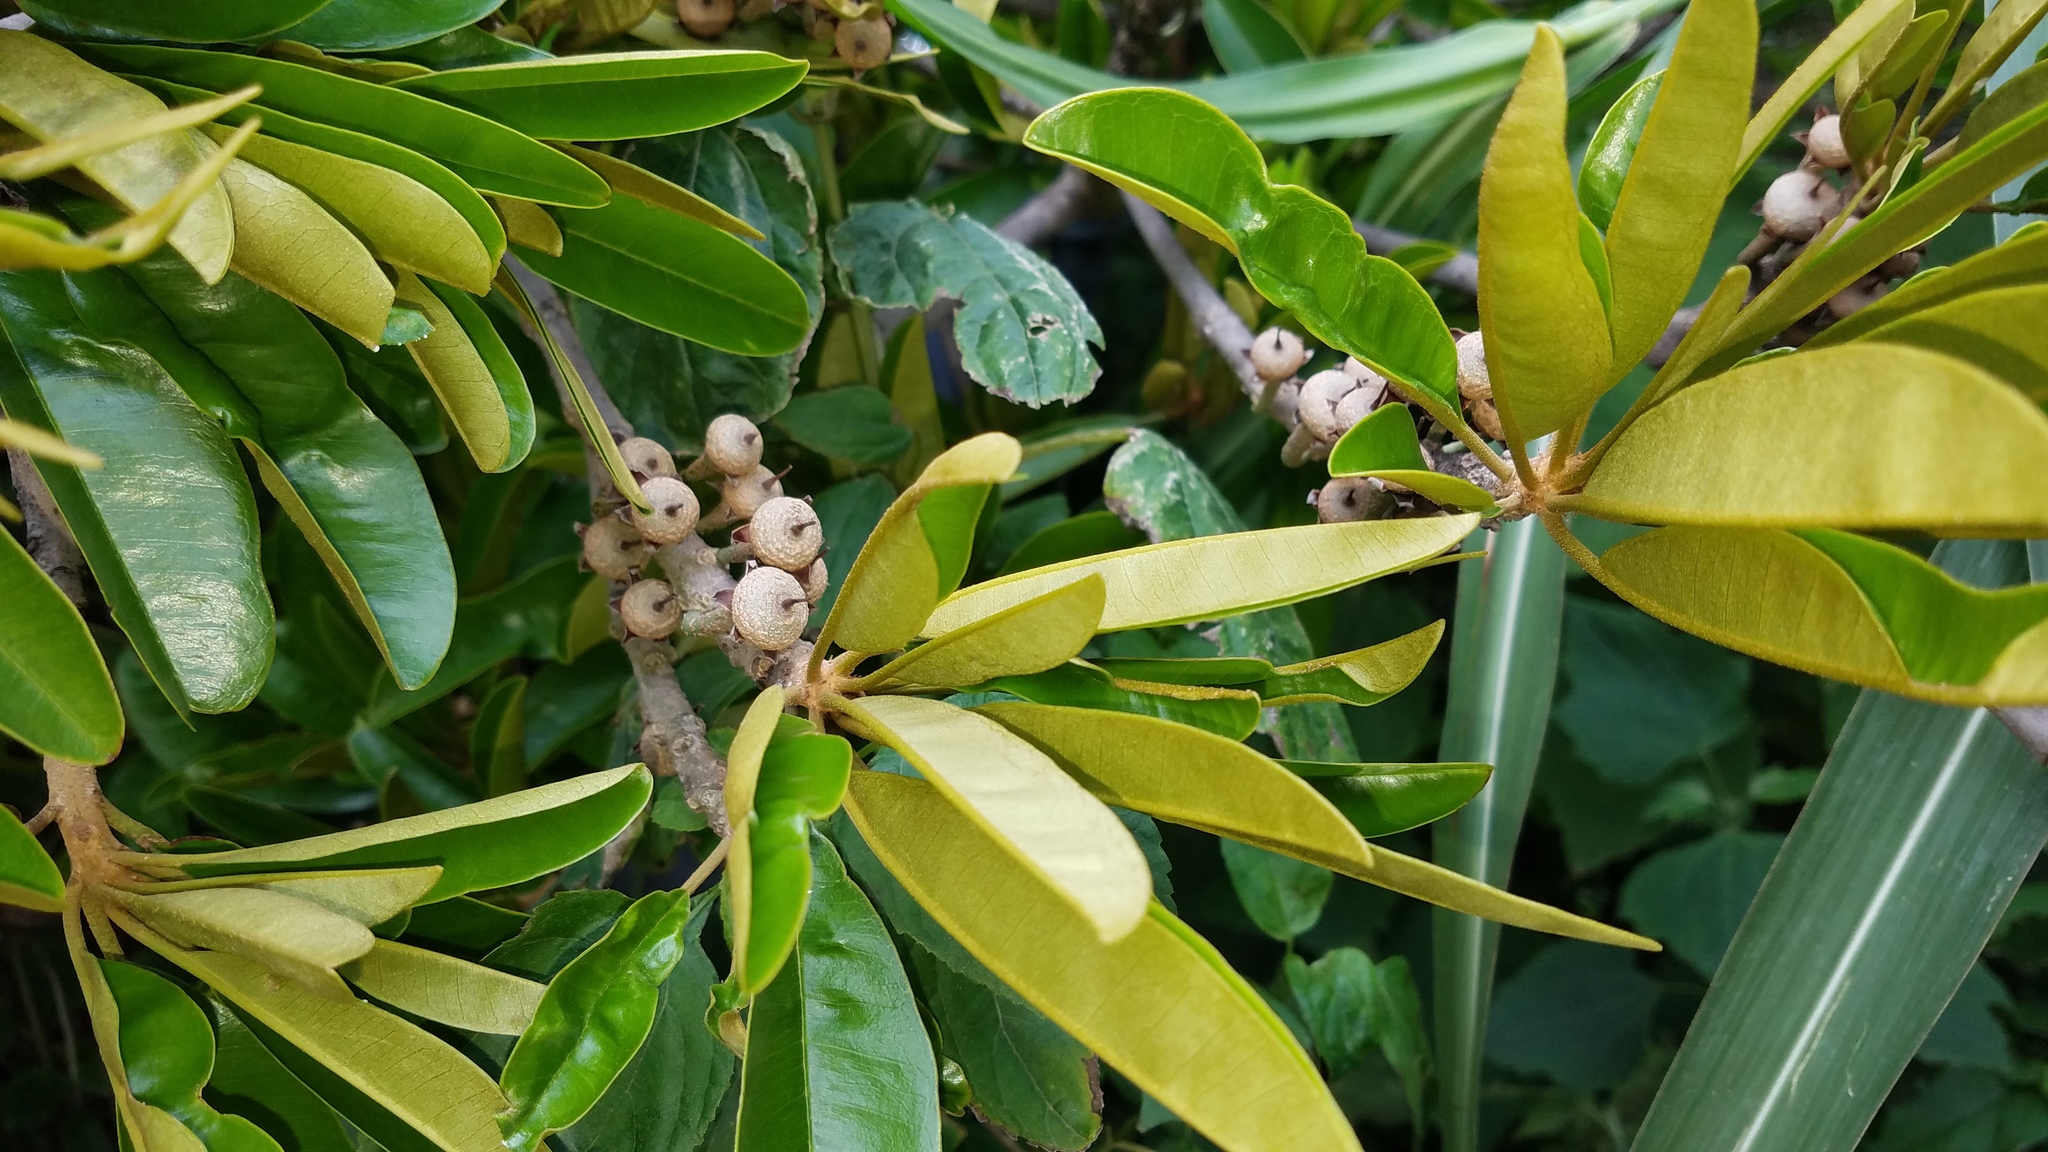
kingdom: Plantae
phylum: Tracheophyta
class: Magnoliopsida
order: Ericales
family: Sapotaceae
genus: Manilkara
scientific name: Manilkara chicle
